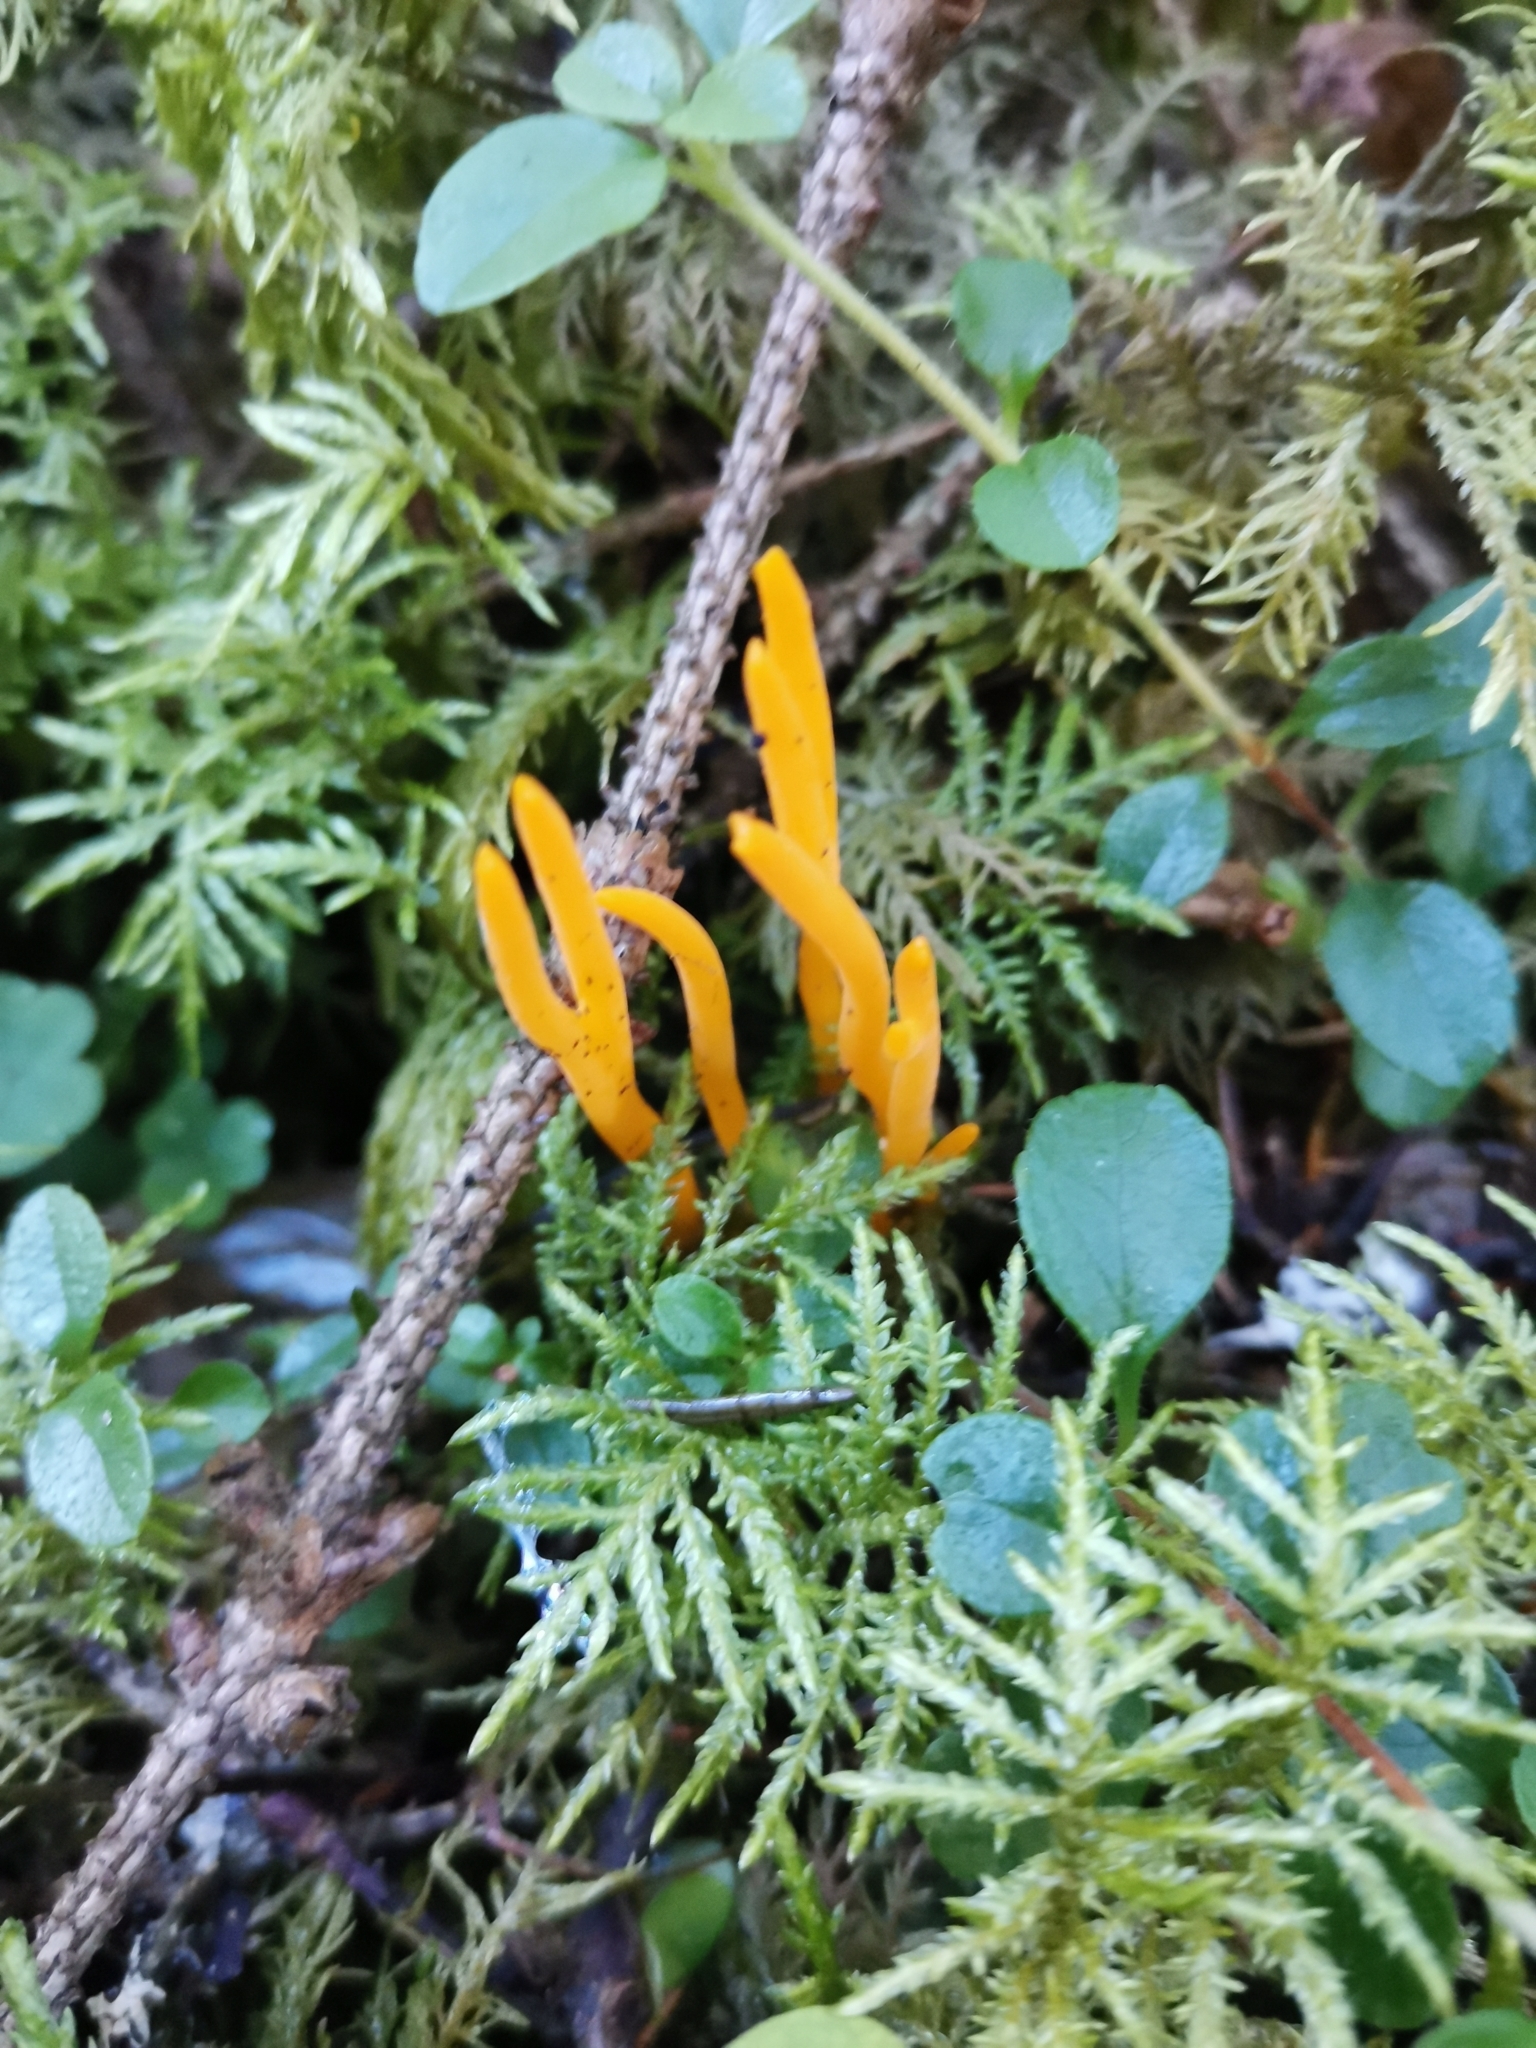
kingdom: Fungi
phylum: Basidiomycota
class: Dacrymycetes
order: Dacrymycetales
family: Dacrymycetaceae
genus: Calocera
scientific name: Calocera viscosa
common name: Yellow stagshorn
